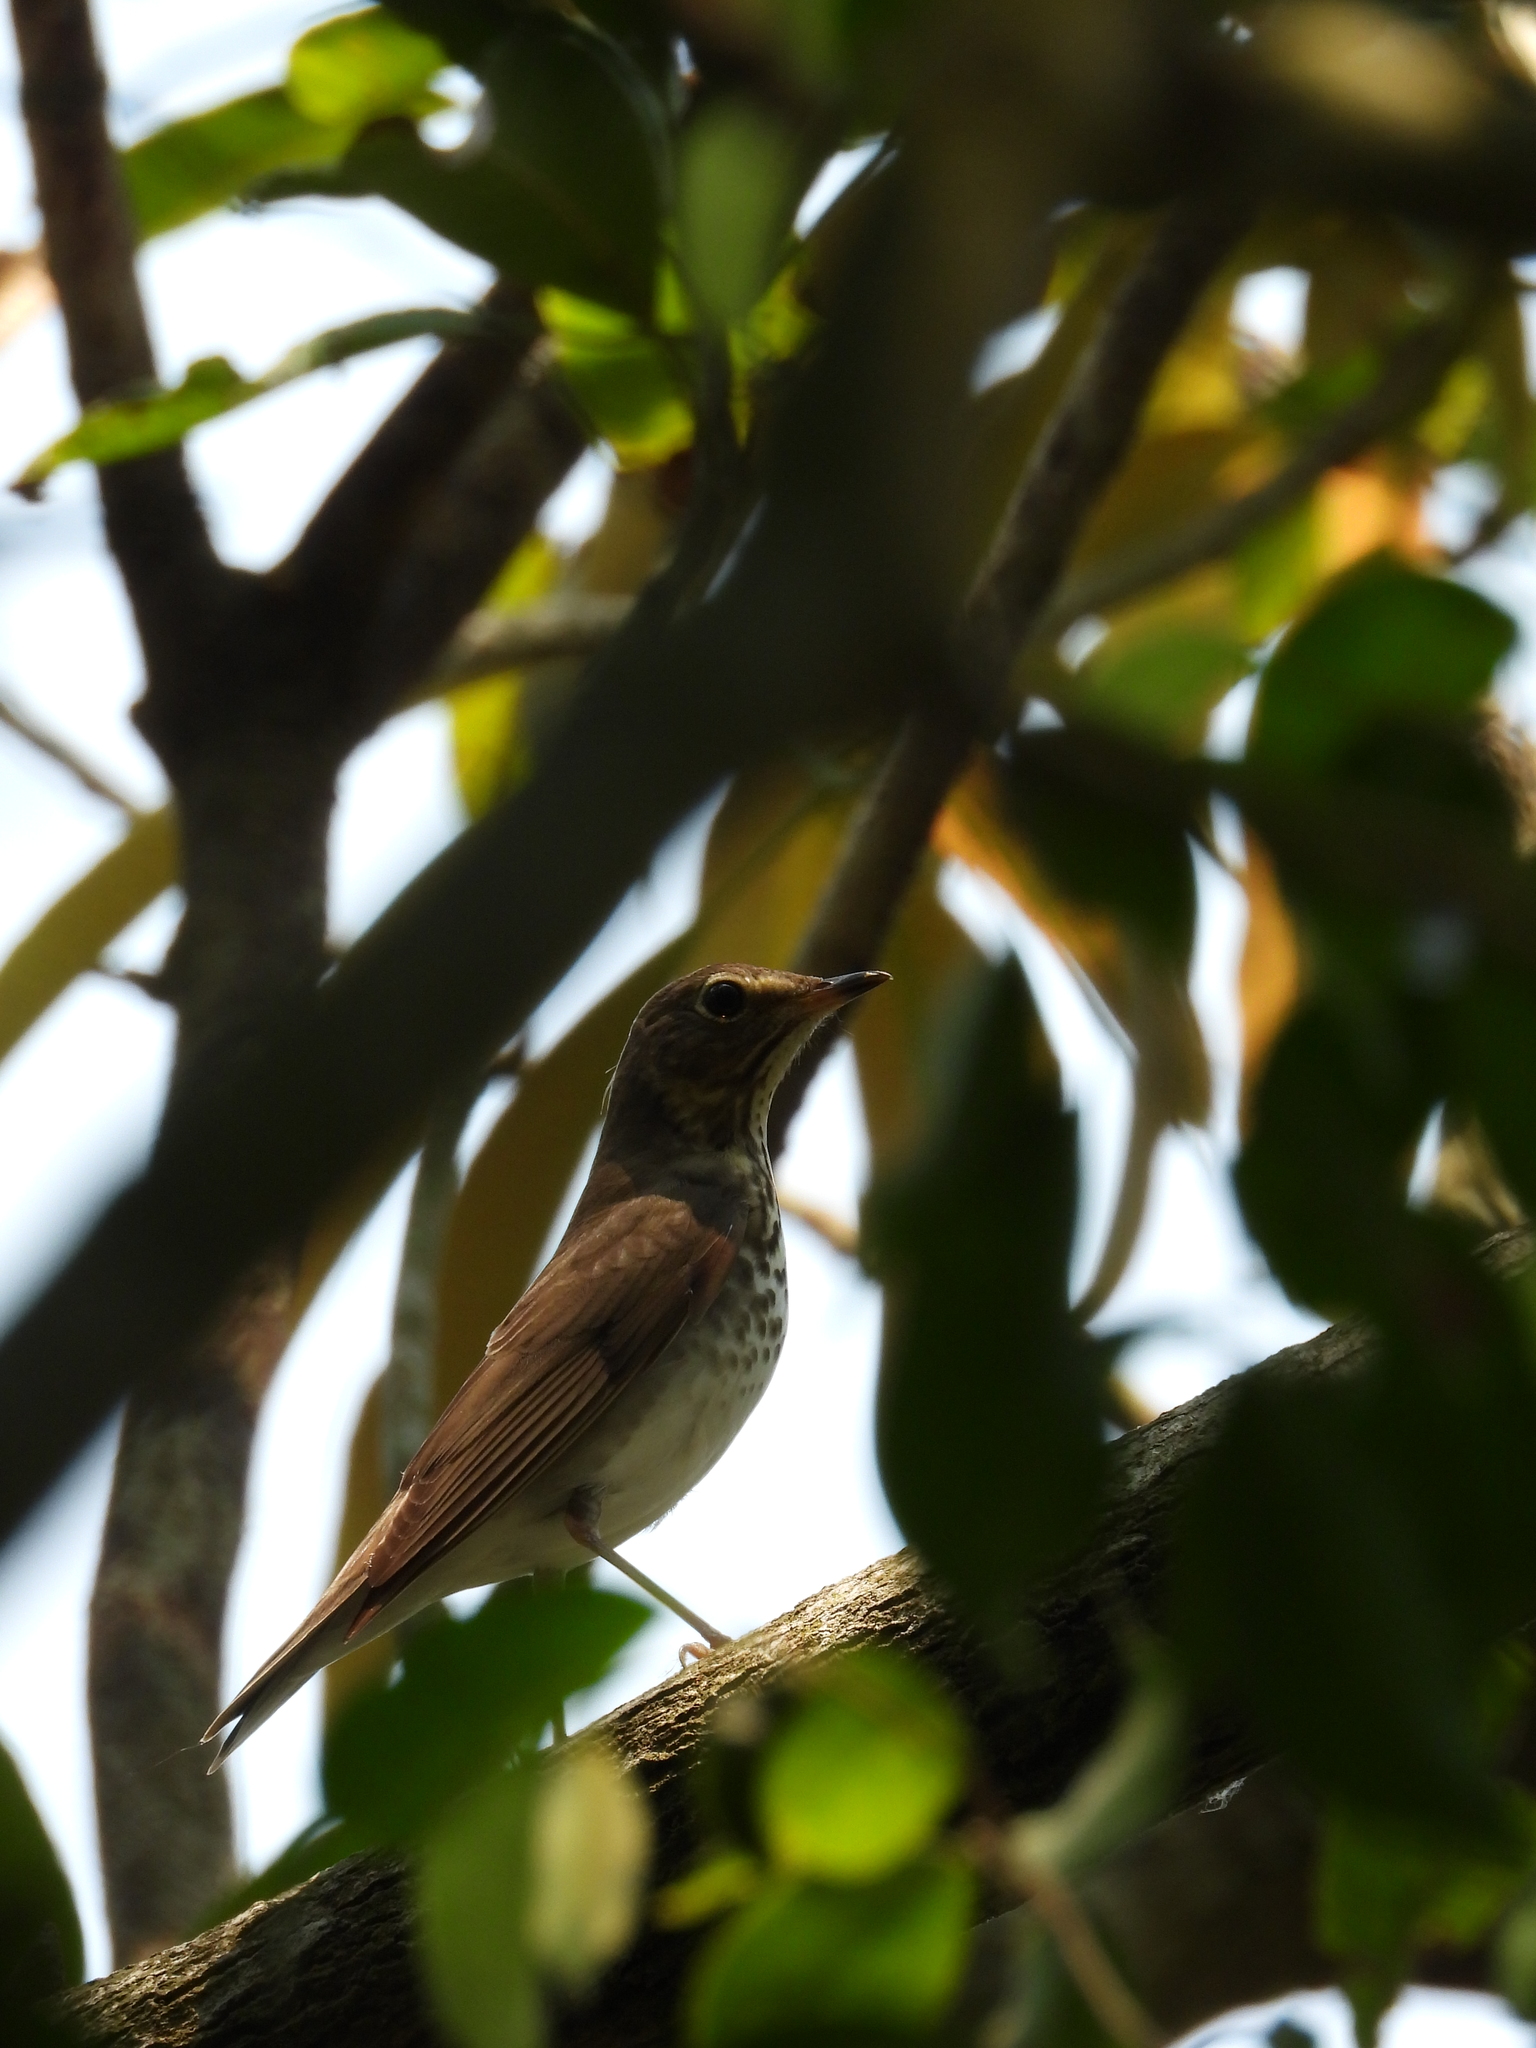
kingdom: Animalia
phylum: Chordata
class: Aves
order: Passeriformes
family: Turdidae
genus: Catharus
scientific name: Catharus ustulatus
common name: Swainson's thrush
